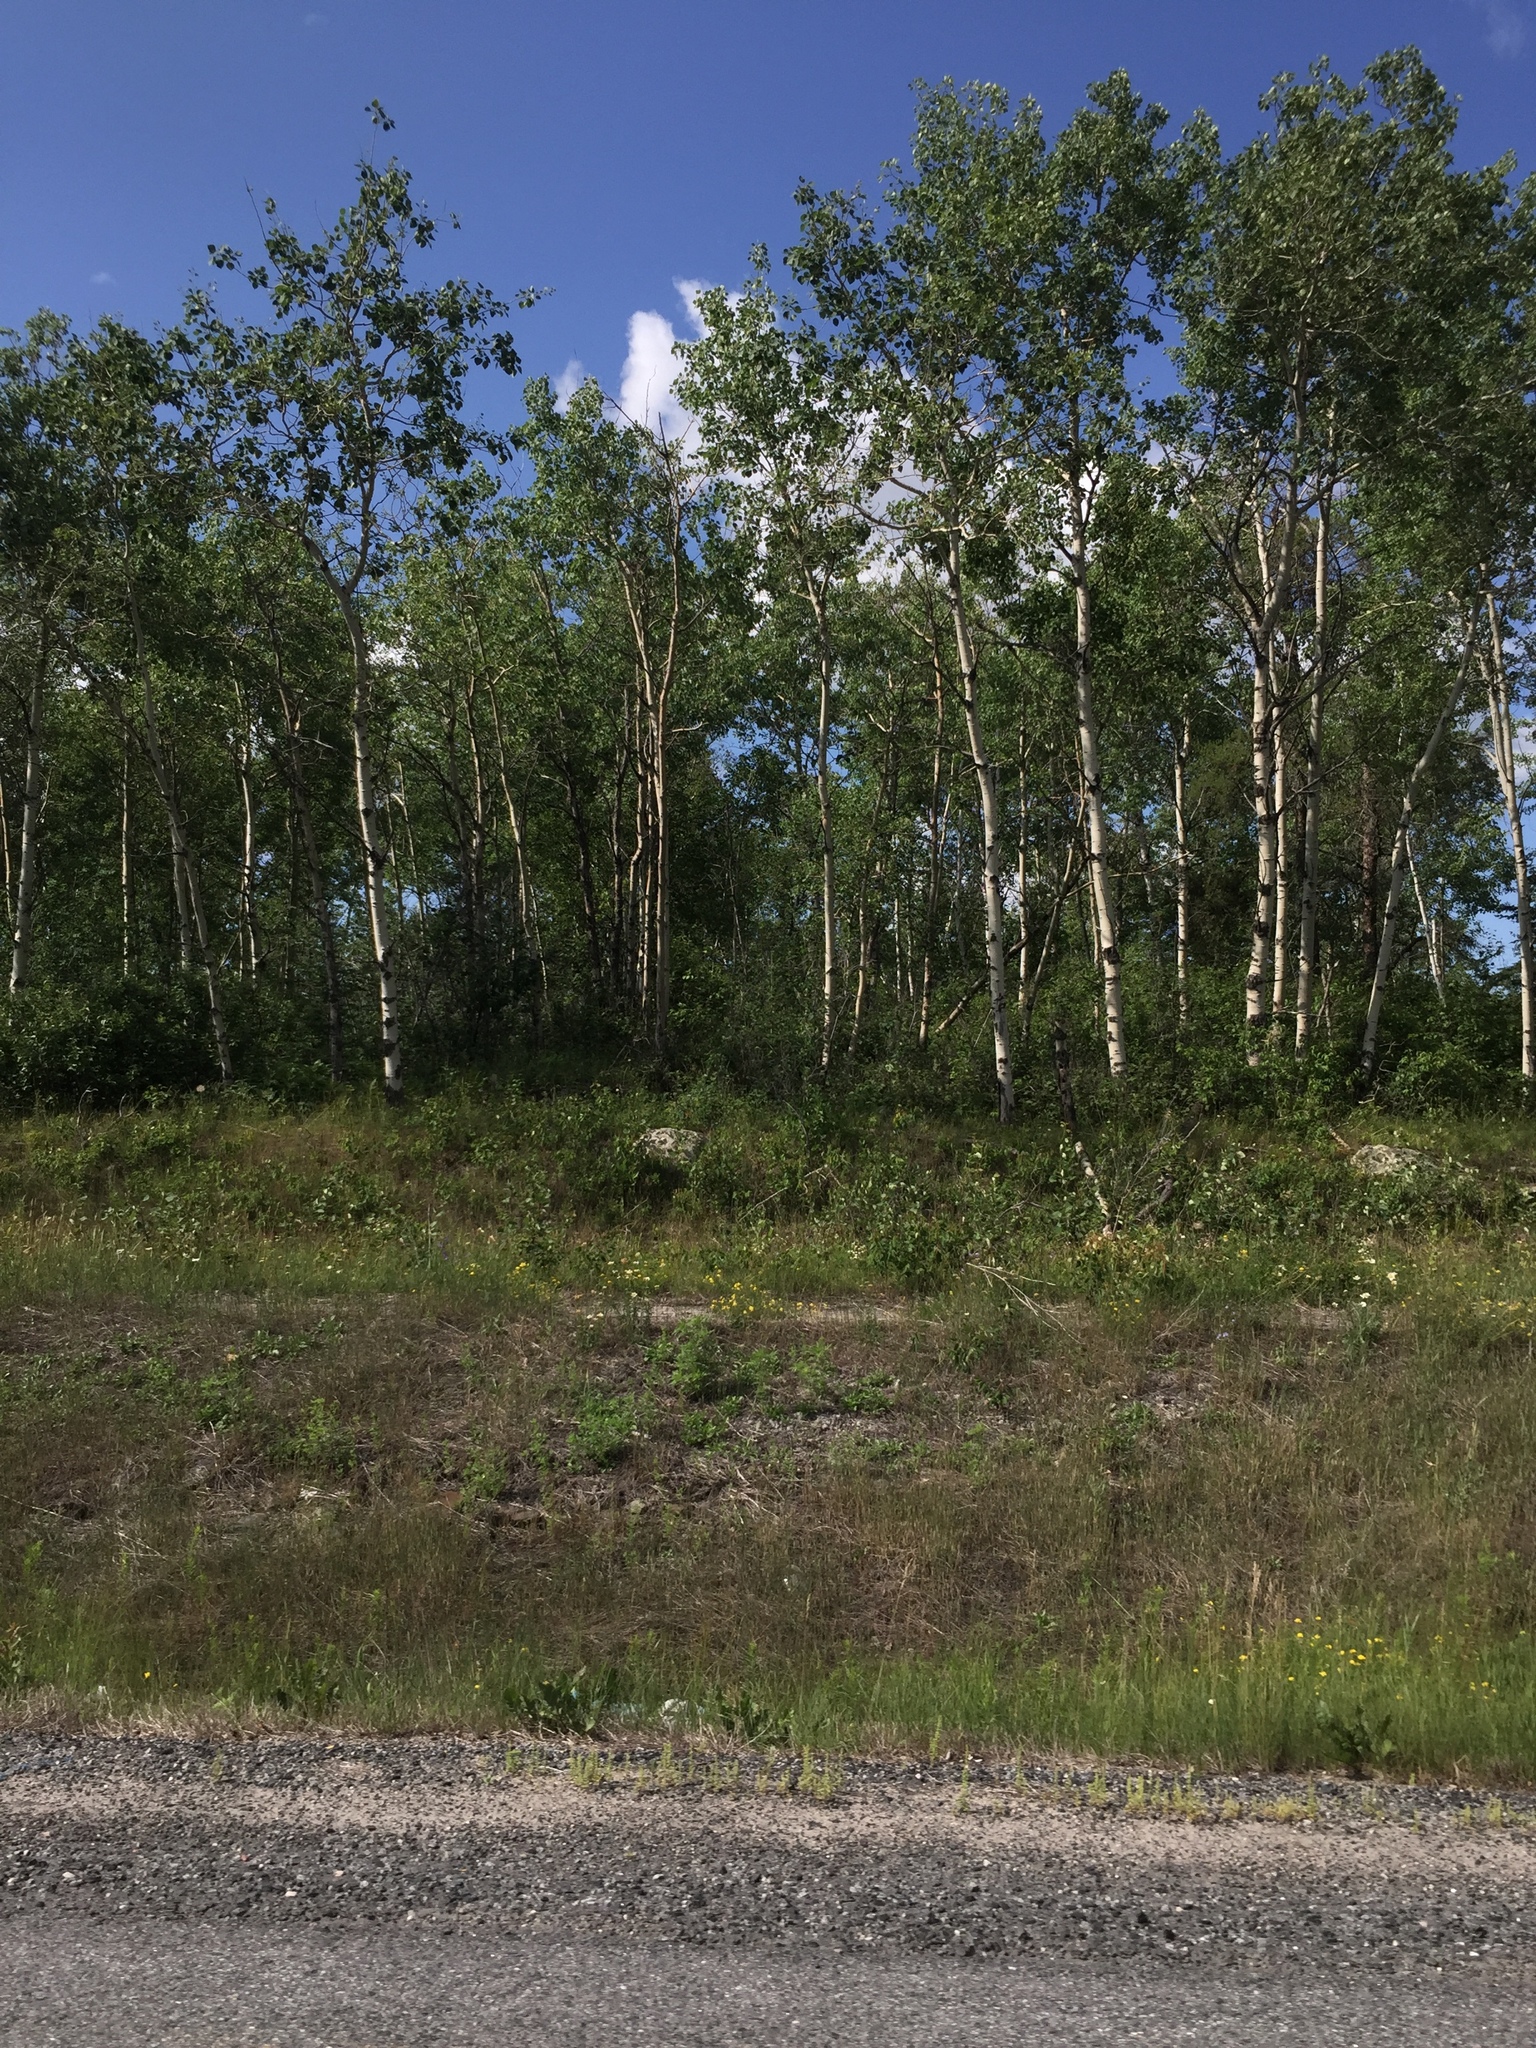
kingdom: Plantae
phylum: Tracheophyta
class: Magnoliopsida
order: Malpighiales
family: Salicaceae
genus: Populus
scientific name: Populus tremuloides
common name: Quaking aspen
